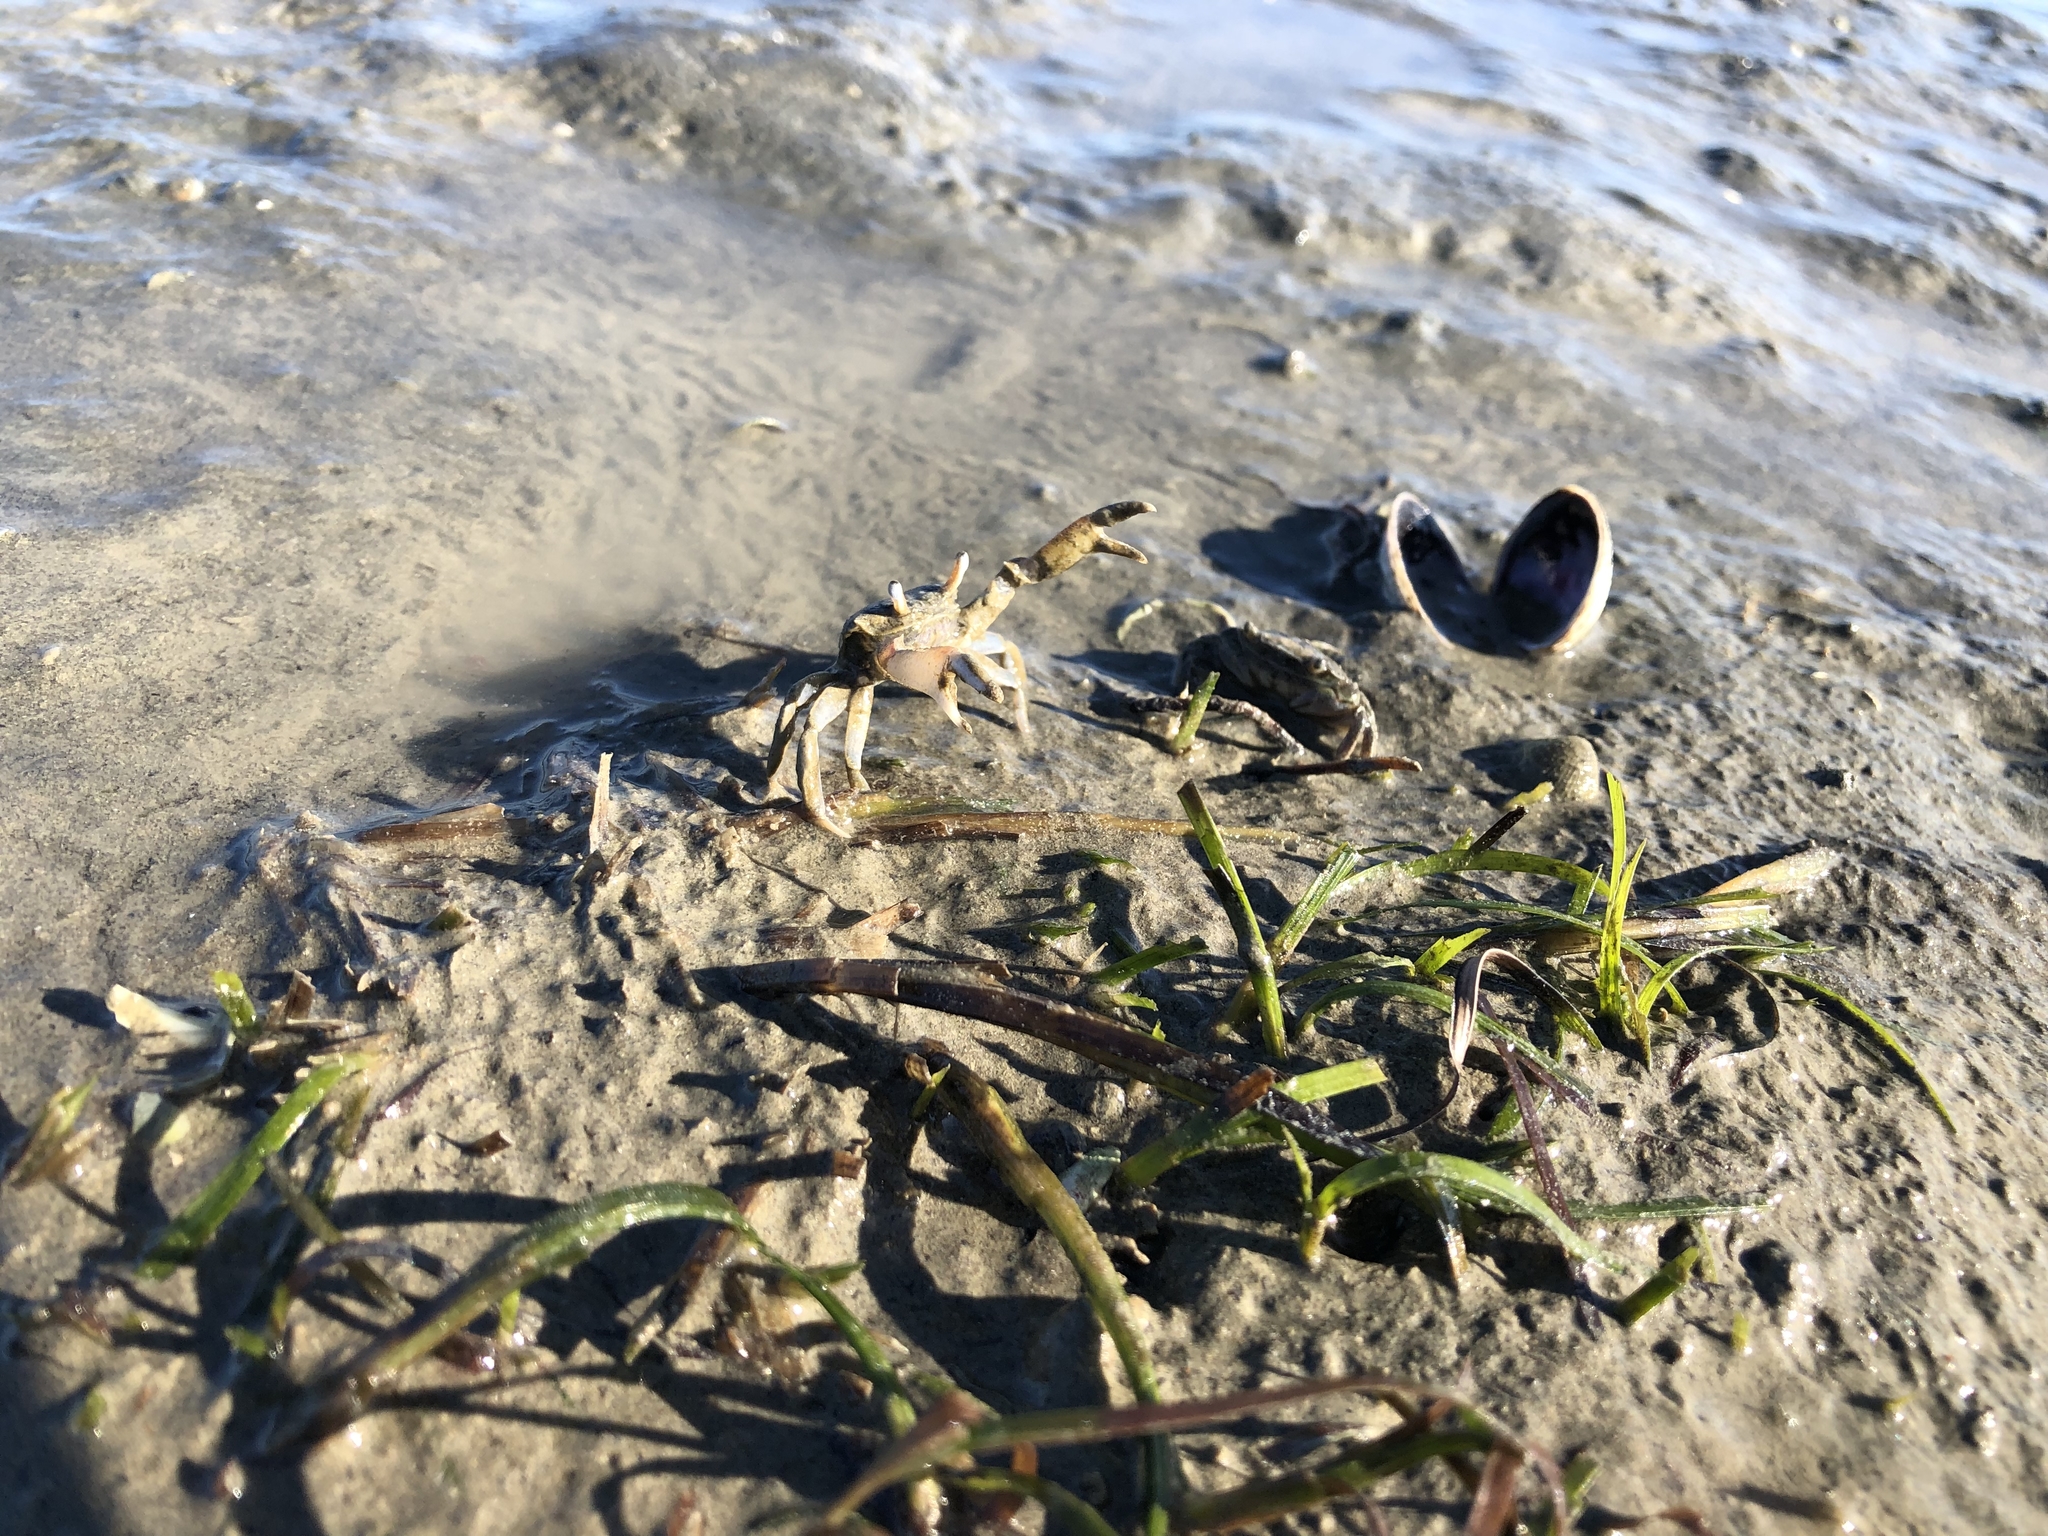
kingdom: Animalia
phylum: Arthropoda
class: Malacostraca
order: Decapoda
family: Macrophthalmidae
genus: Hemiplax
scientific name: Hemiplax hirtipes
